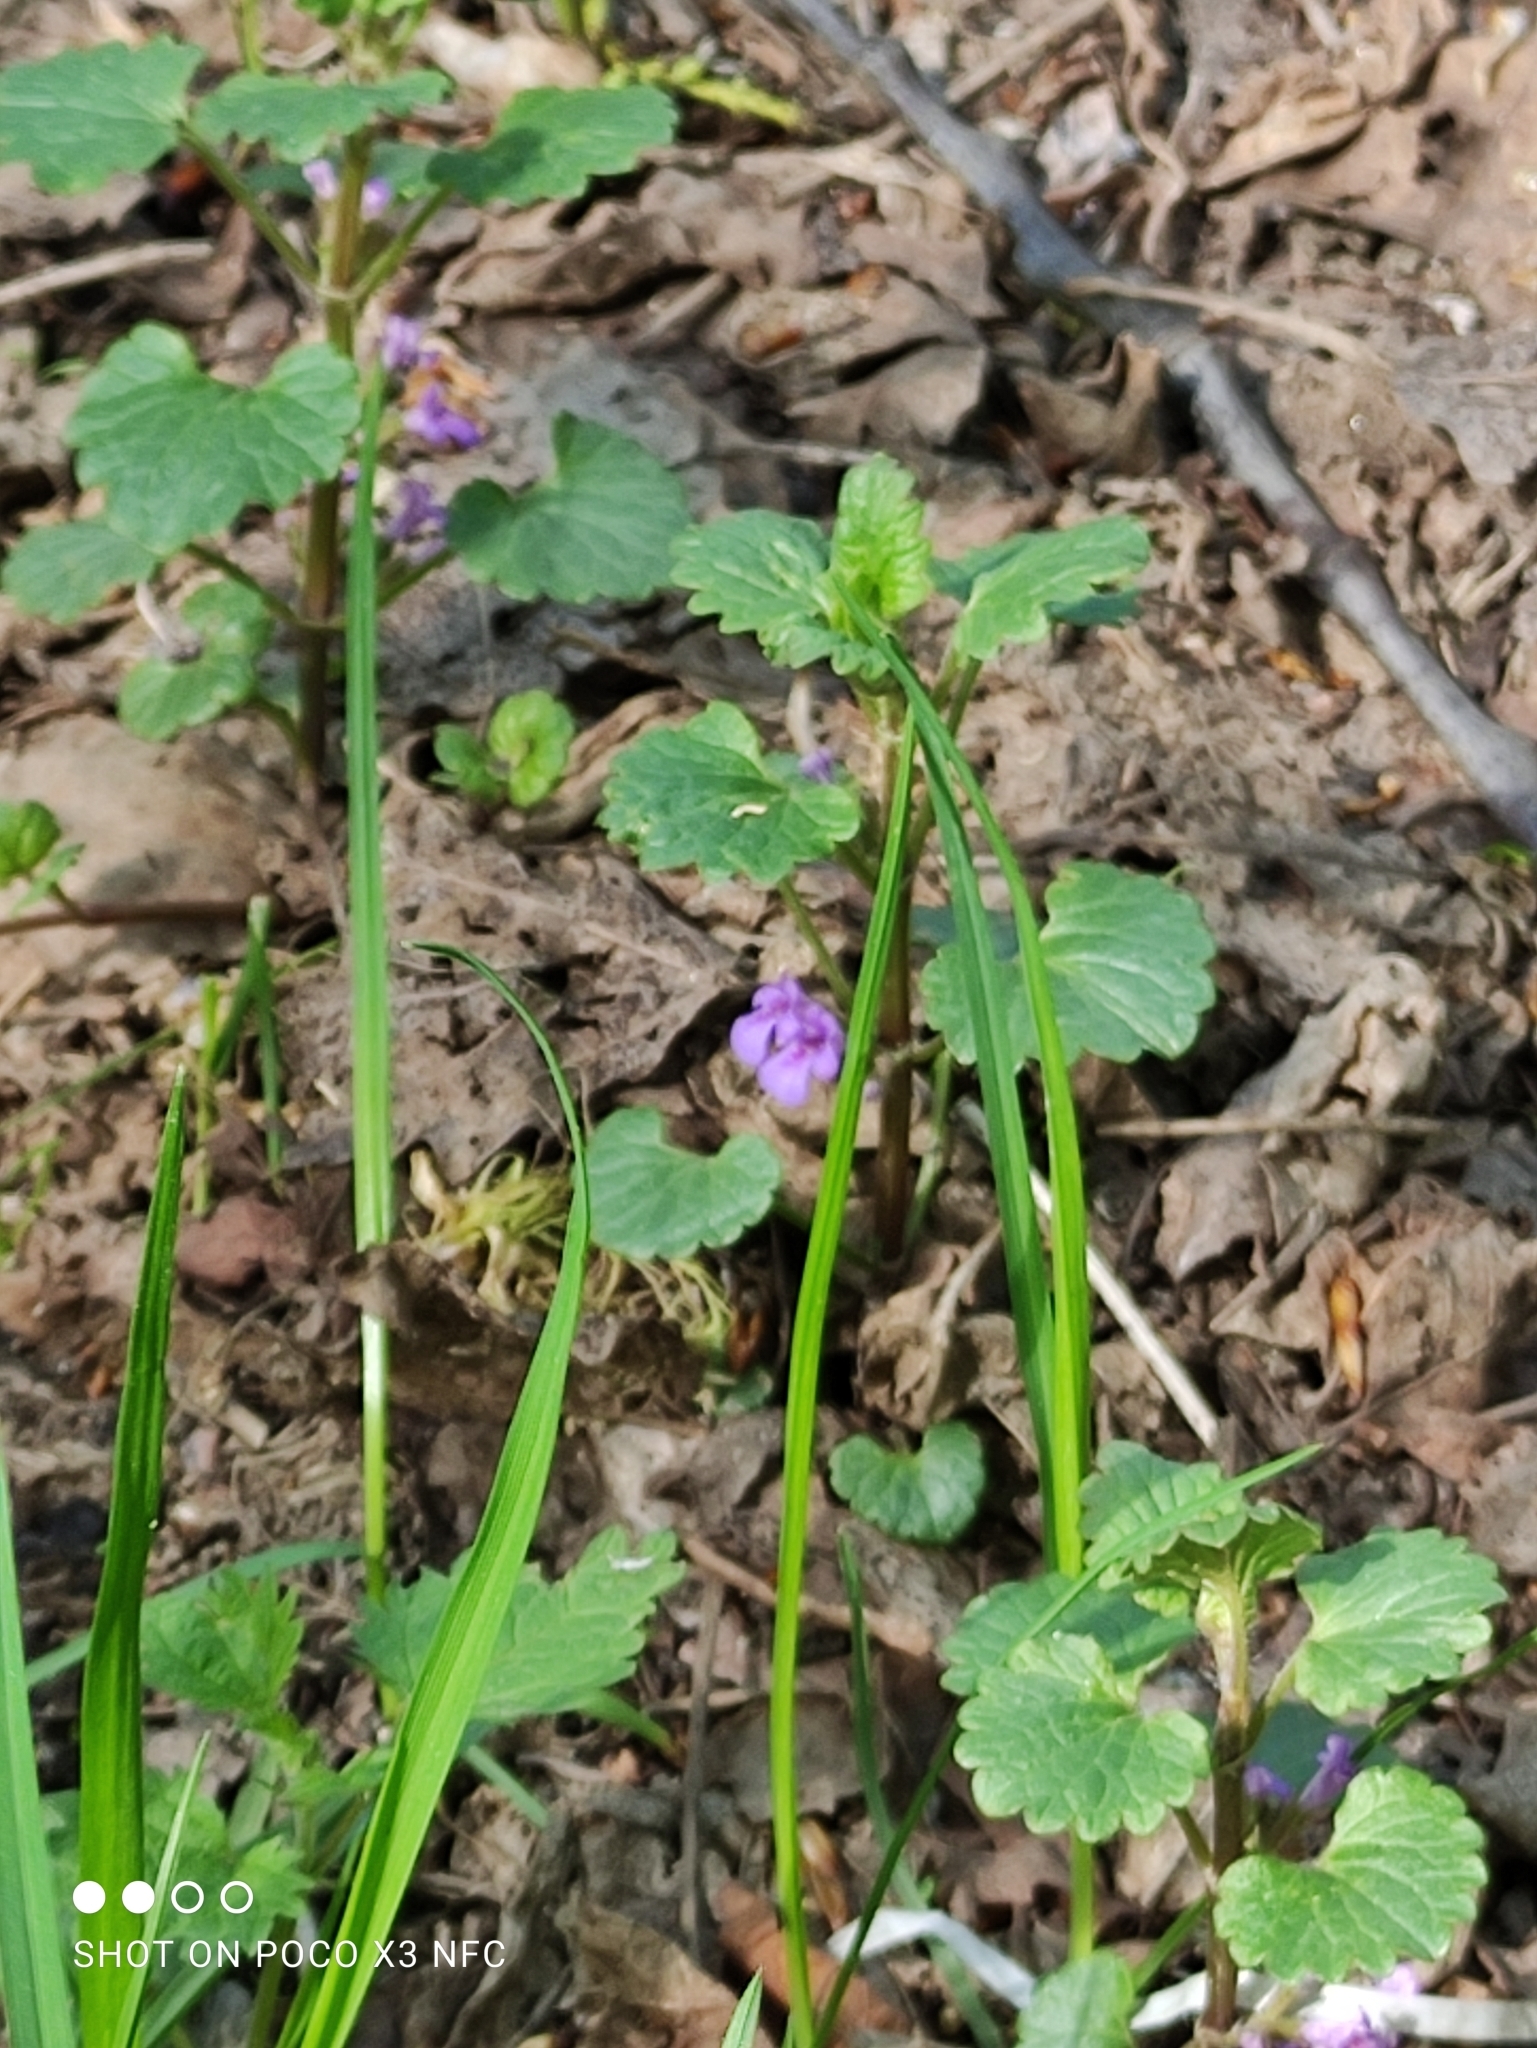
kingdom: Plantae
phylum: Tracheophyta
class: Magnoliopsida
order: Lamiales
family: Lamiaceae
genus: Glechoma
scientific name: Glechoma hederacea
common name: Ground ivy
